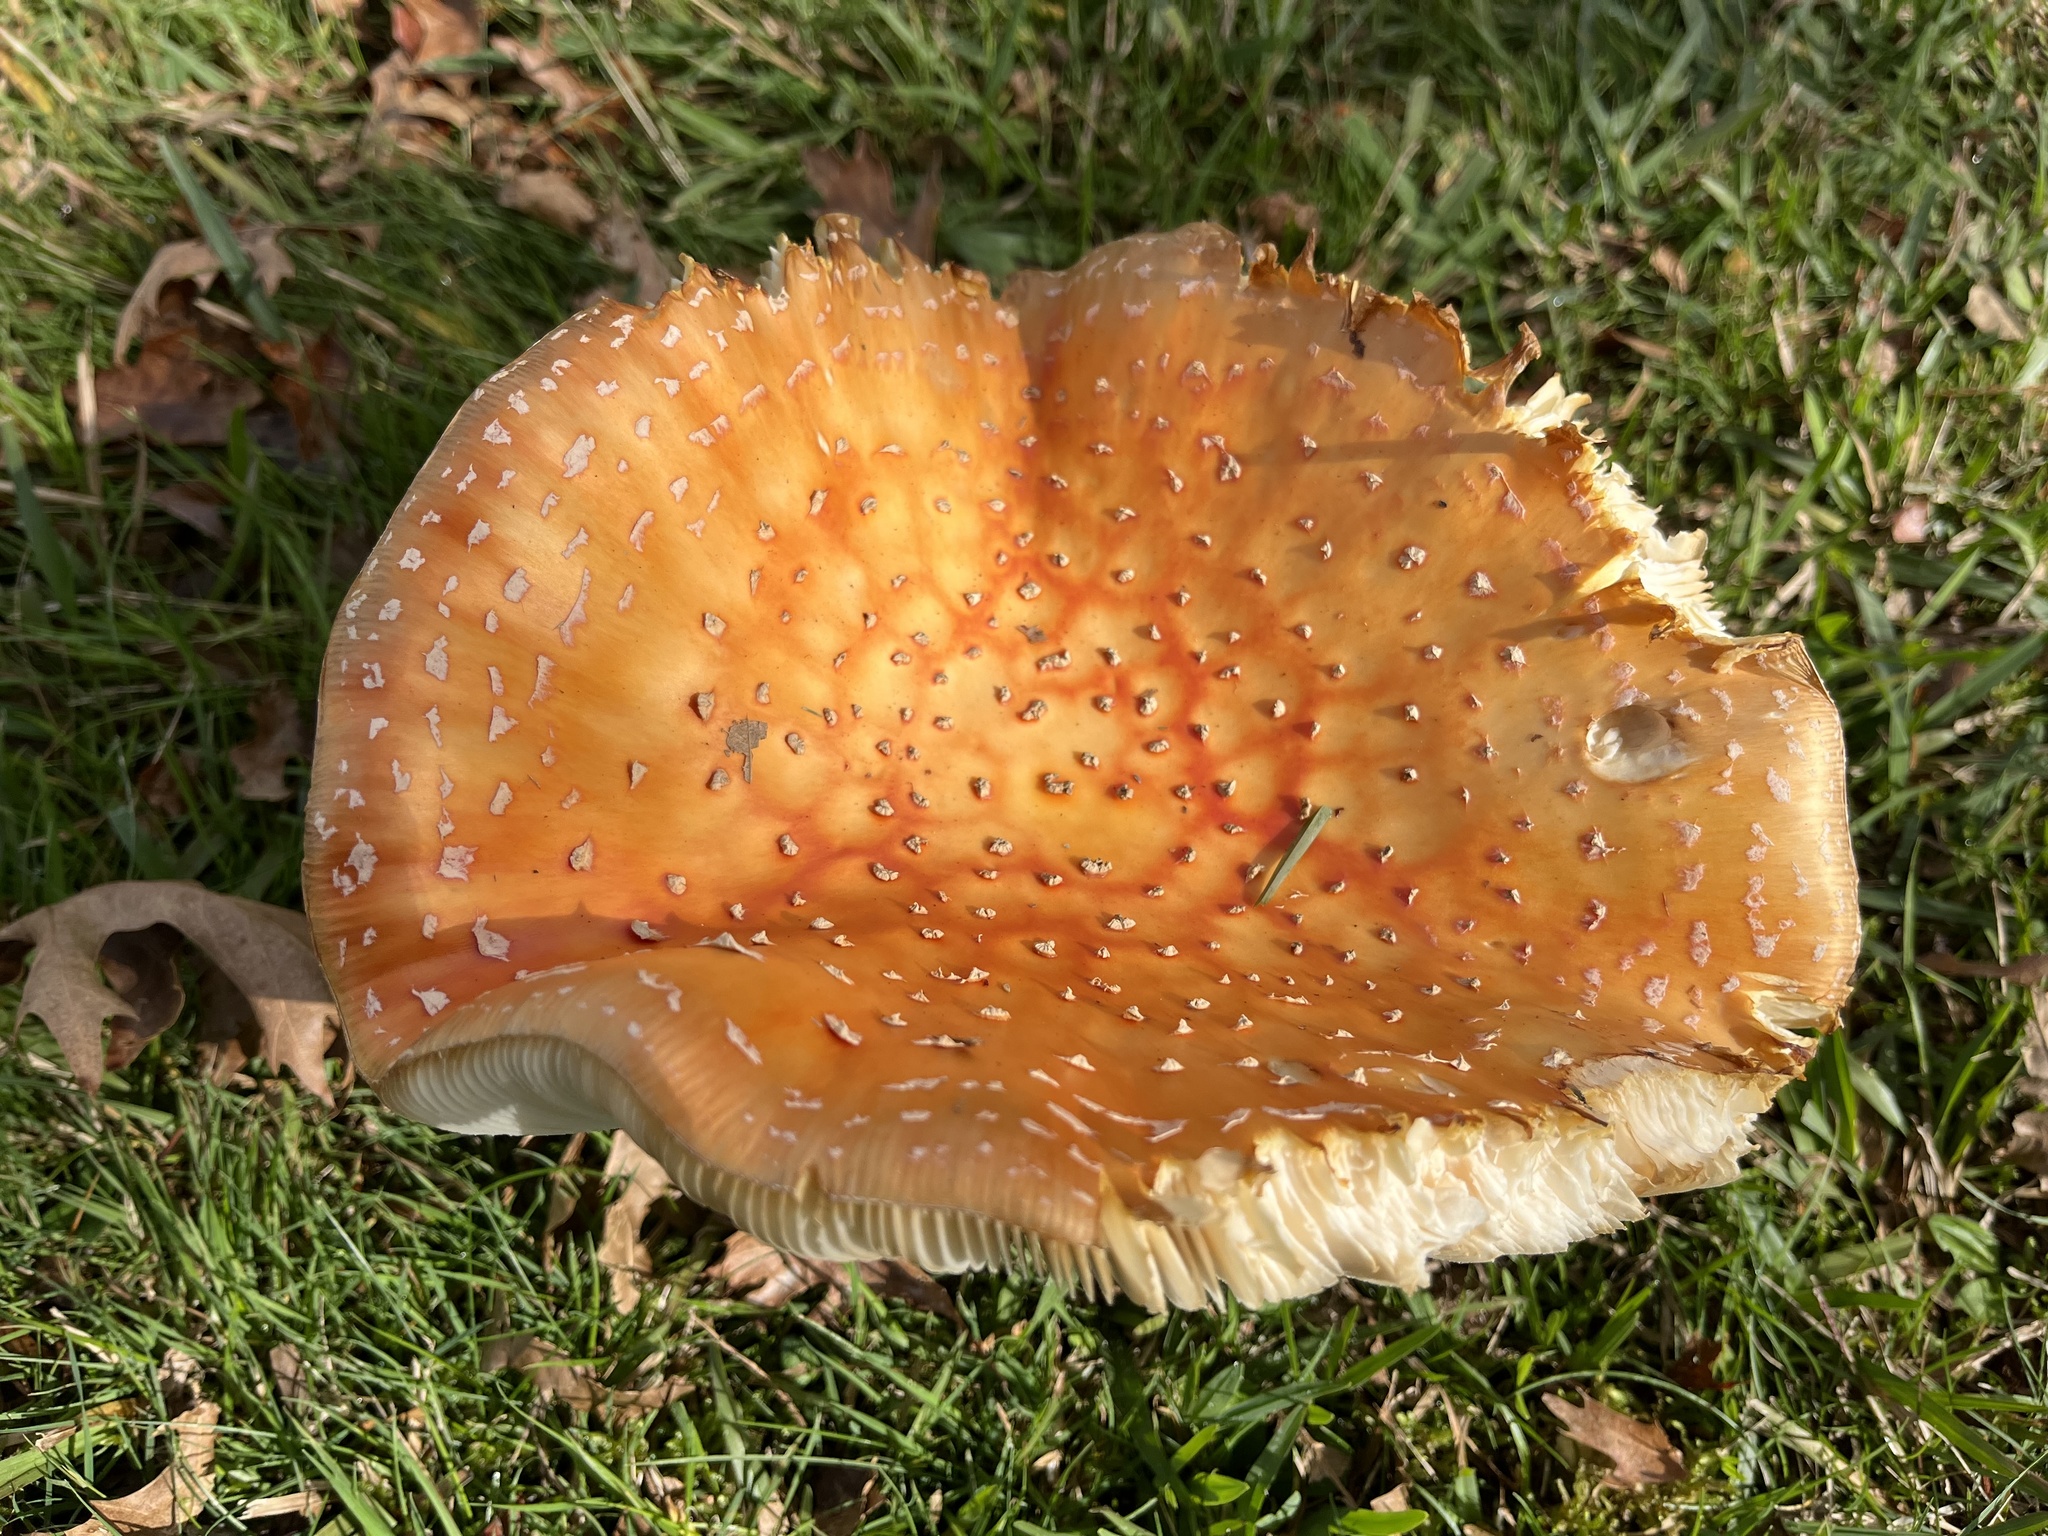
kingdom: Fungi
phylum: Basidiomycota
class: Agaricomycetes
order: Agaricales
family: Amanitaceae
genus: Amanita
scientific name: Amanita muscaria
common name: Fly agaric
